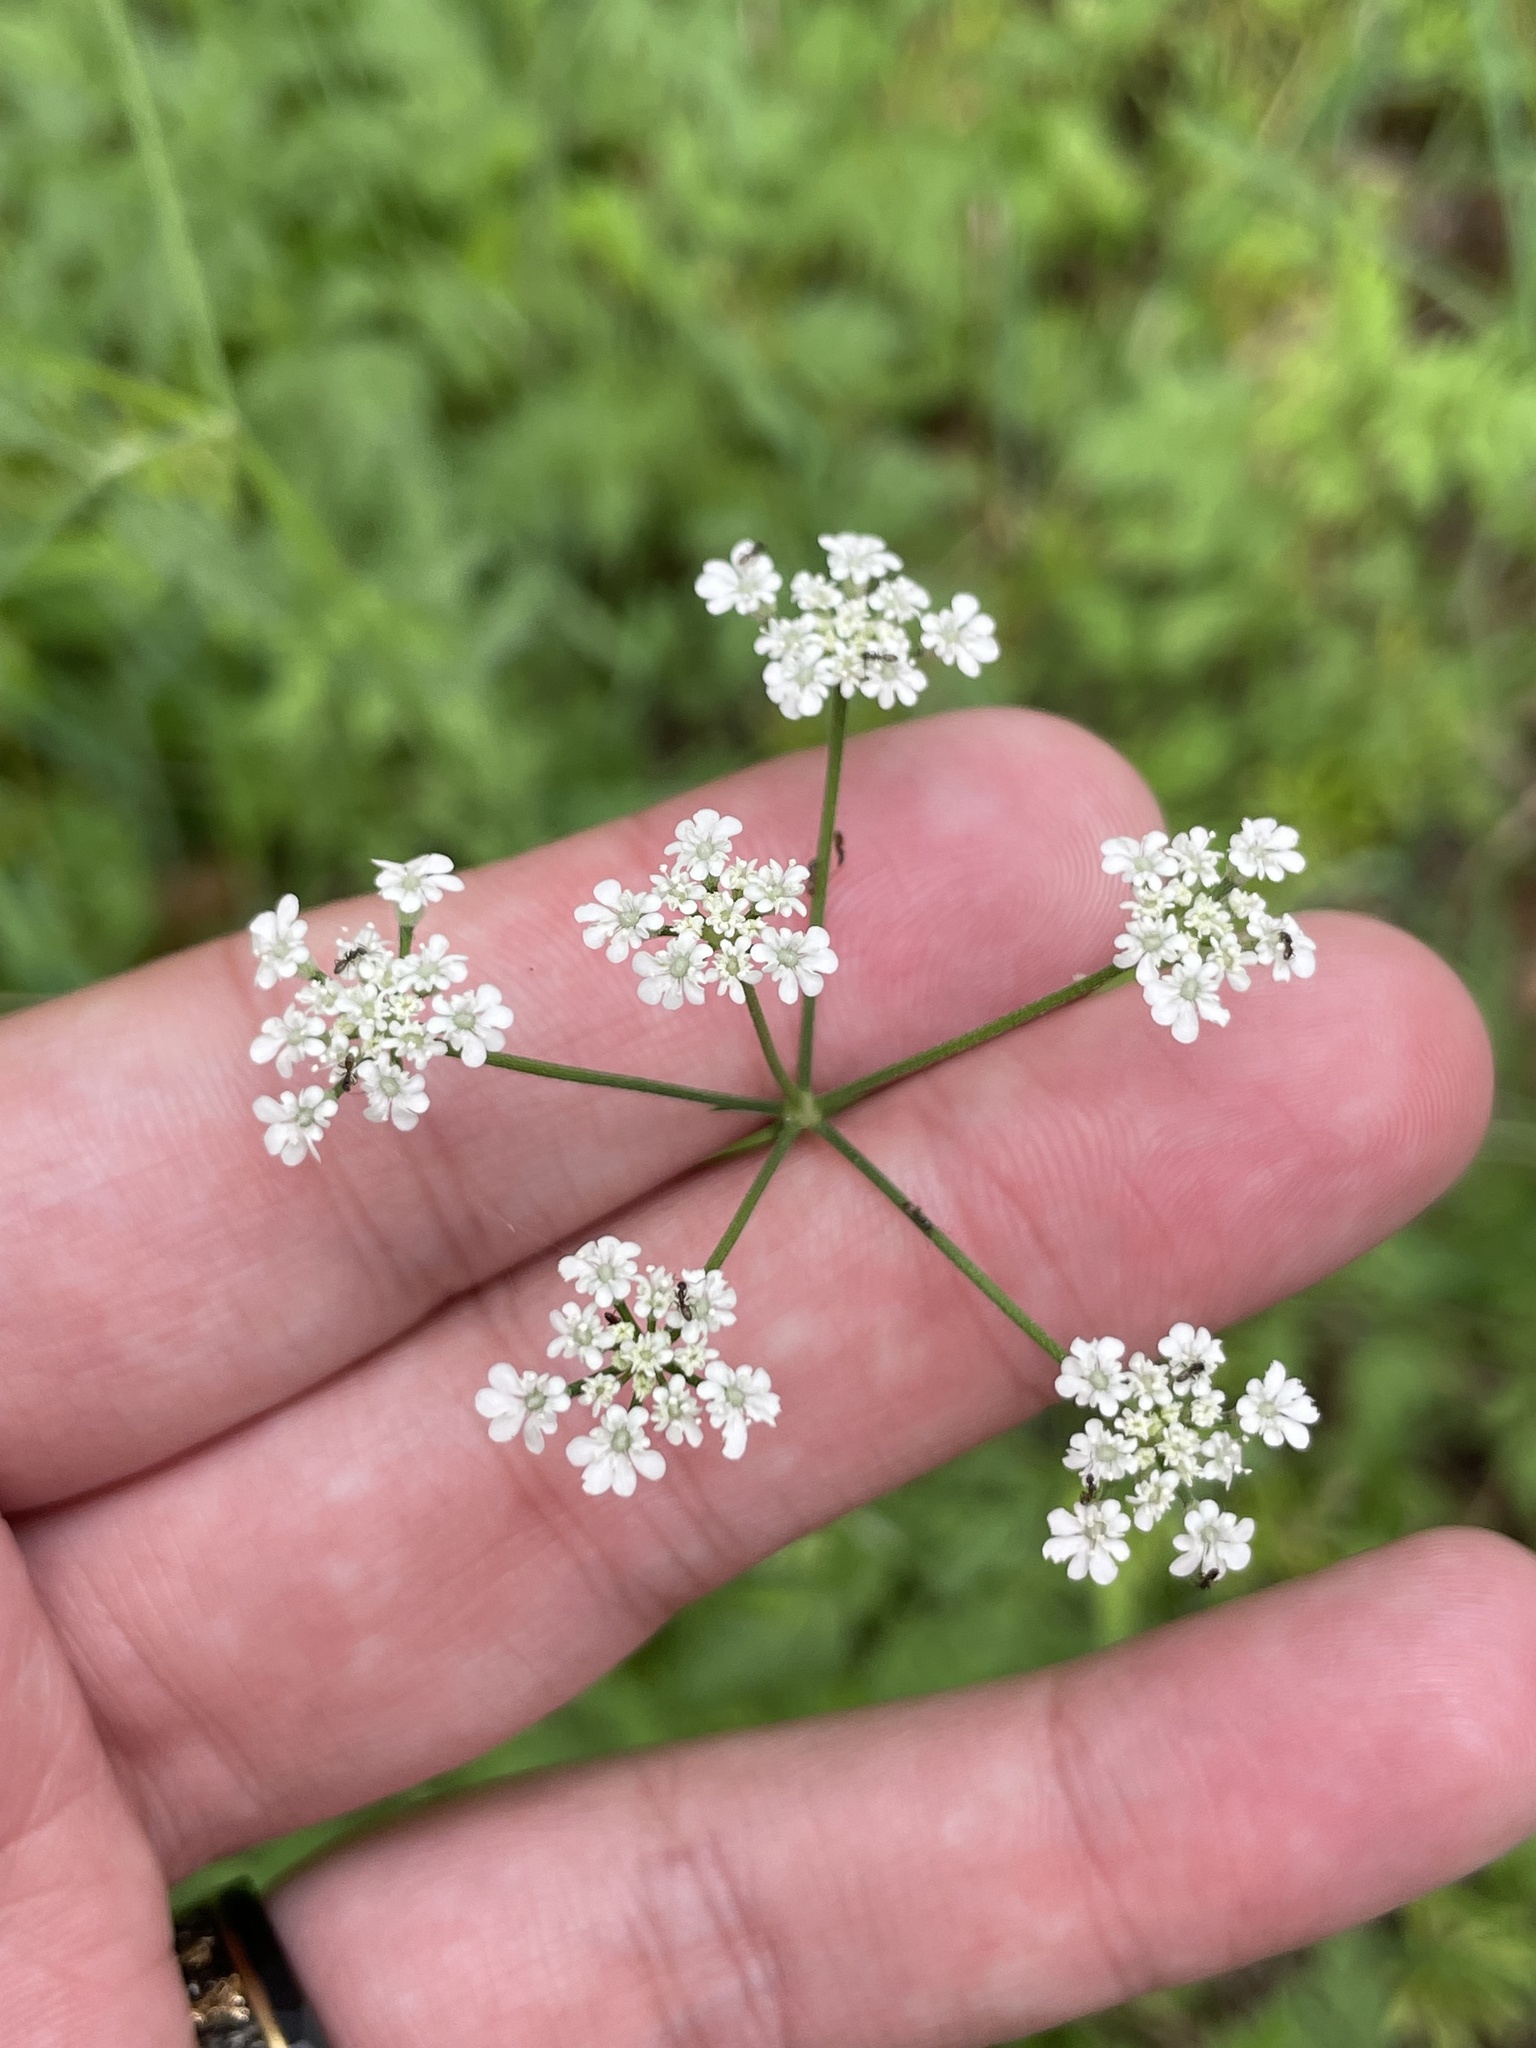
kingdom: Plantae
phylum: Tracheophyta
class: Magnoliopsida
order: Apiales
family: Apiaceae
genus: Torilis
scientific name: Torilis arvensis
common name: Spreading hedge-parsley
